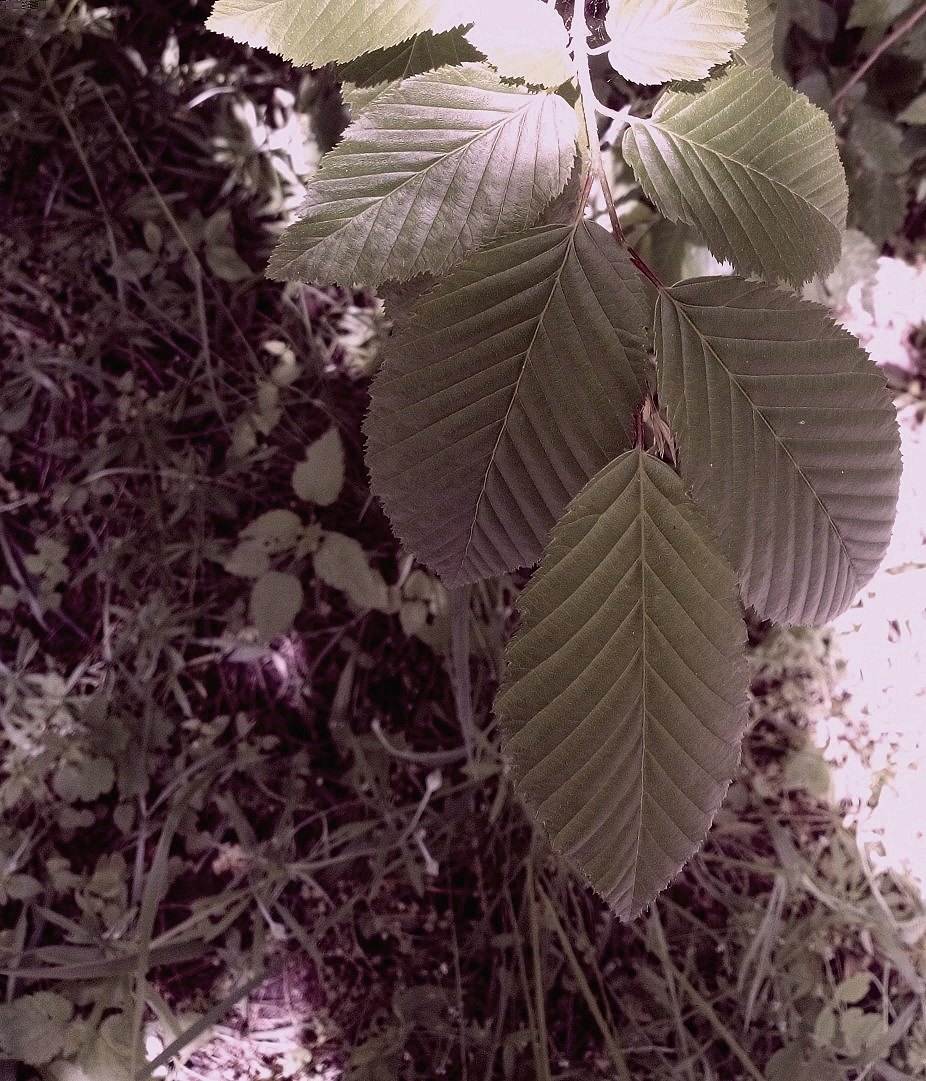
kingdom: Plantae
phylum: Tracheophyta
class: Magnoliopsida
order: Fagales
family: Betulaceae
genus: Carpinus
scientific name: Carpinus betulus
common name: Hornbeam
